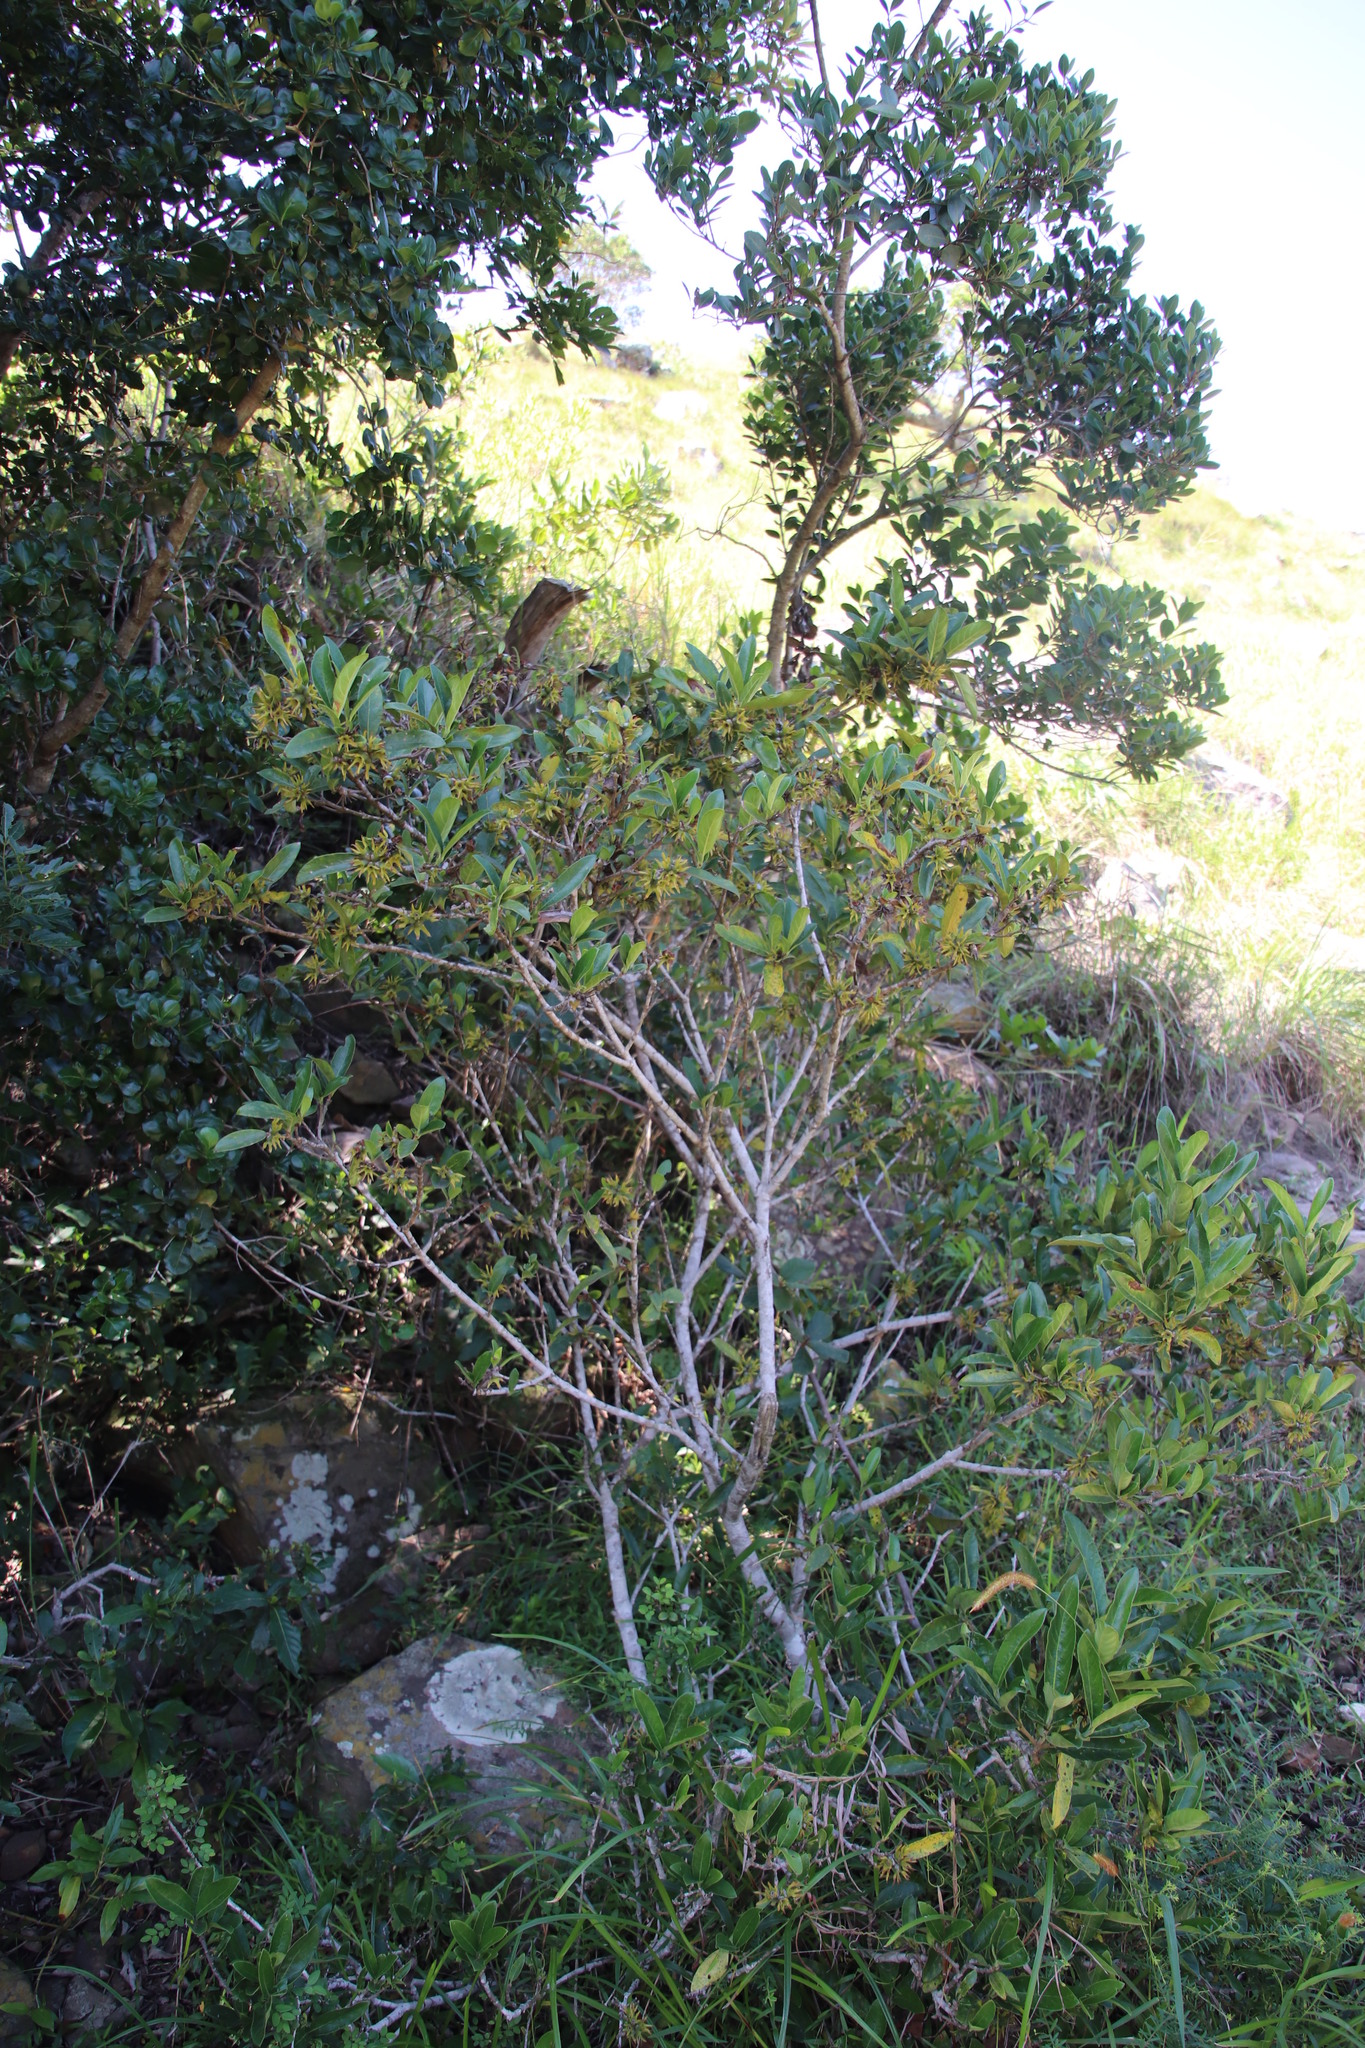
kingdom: Plantae
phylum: Tracheophyta
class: Magnoliopsida
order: Gentianales
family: Rubiaceae
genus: Burchellia
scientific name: Burchellia bubalina
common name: Wild pomegranate
